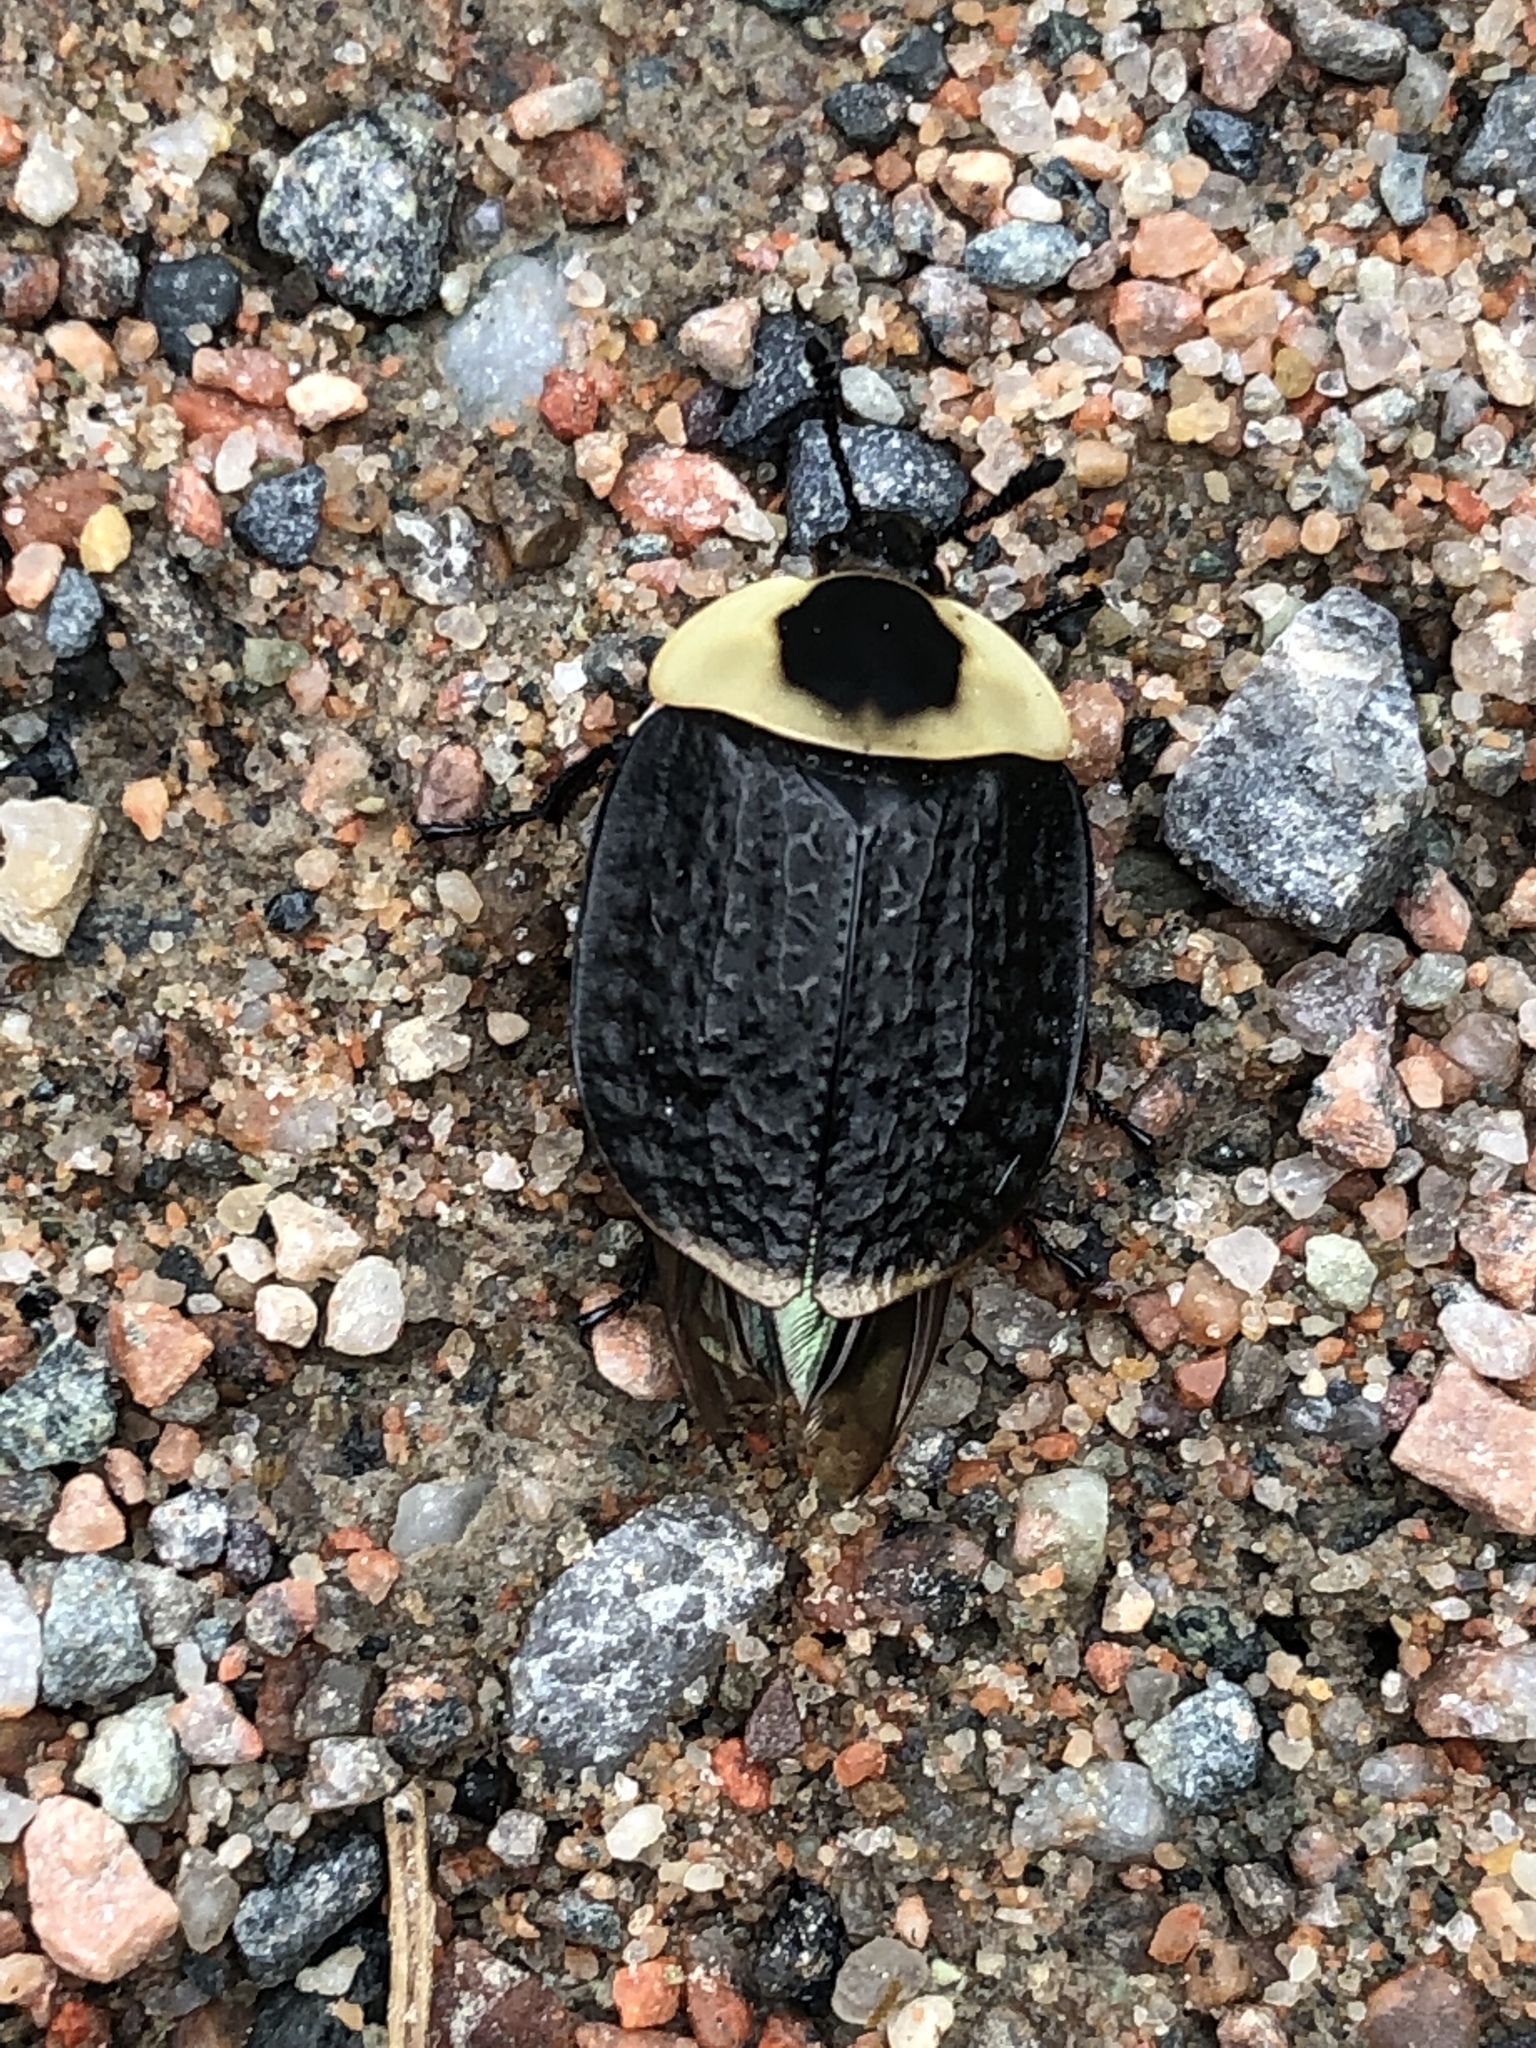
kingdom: Animalia
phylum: Arthropoda
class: Insecta
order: Coleoptera
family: Staphylinidae
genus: Necrophila
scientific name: Necrophila americana
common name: American carrion beetle
